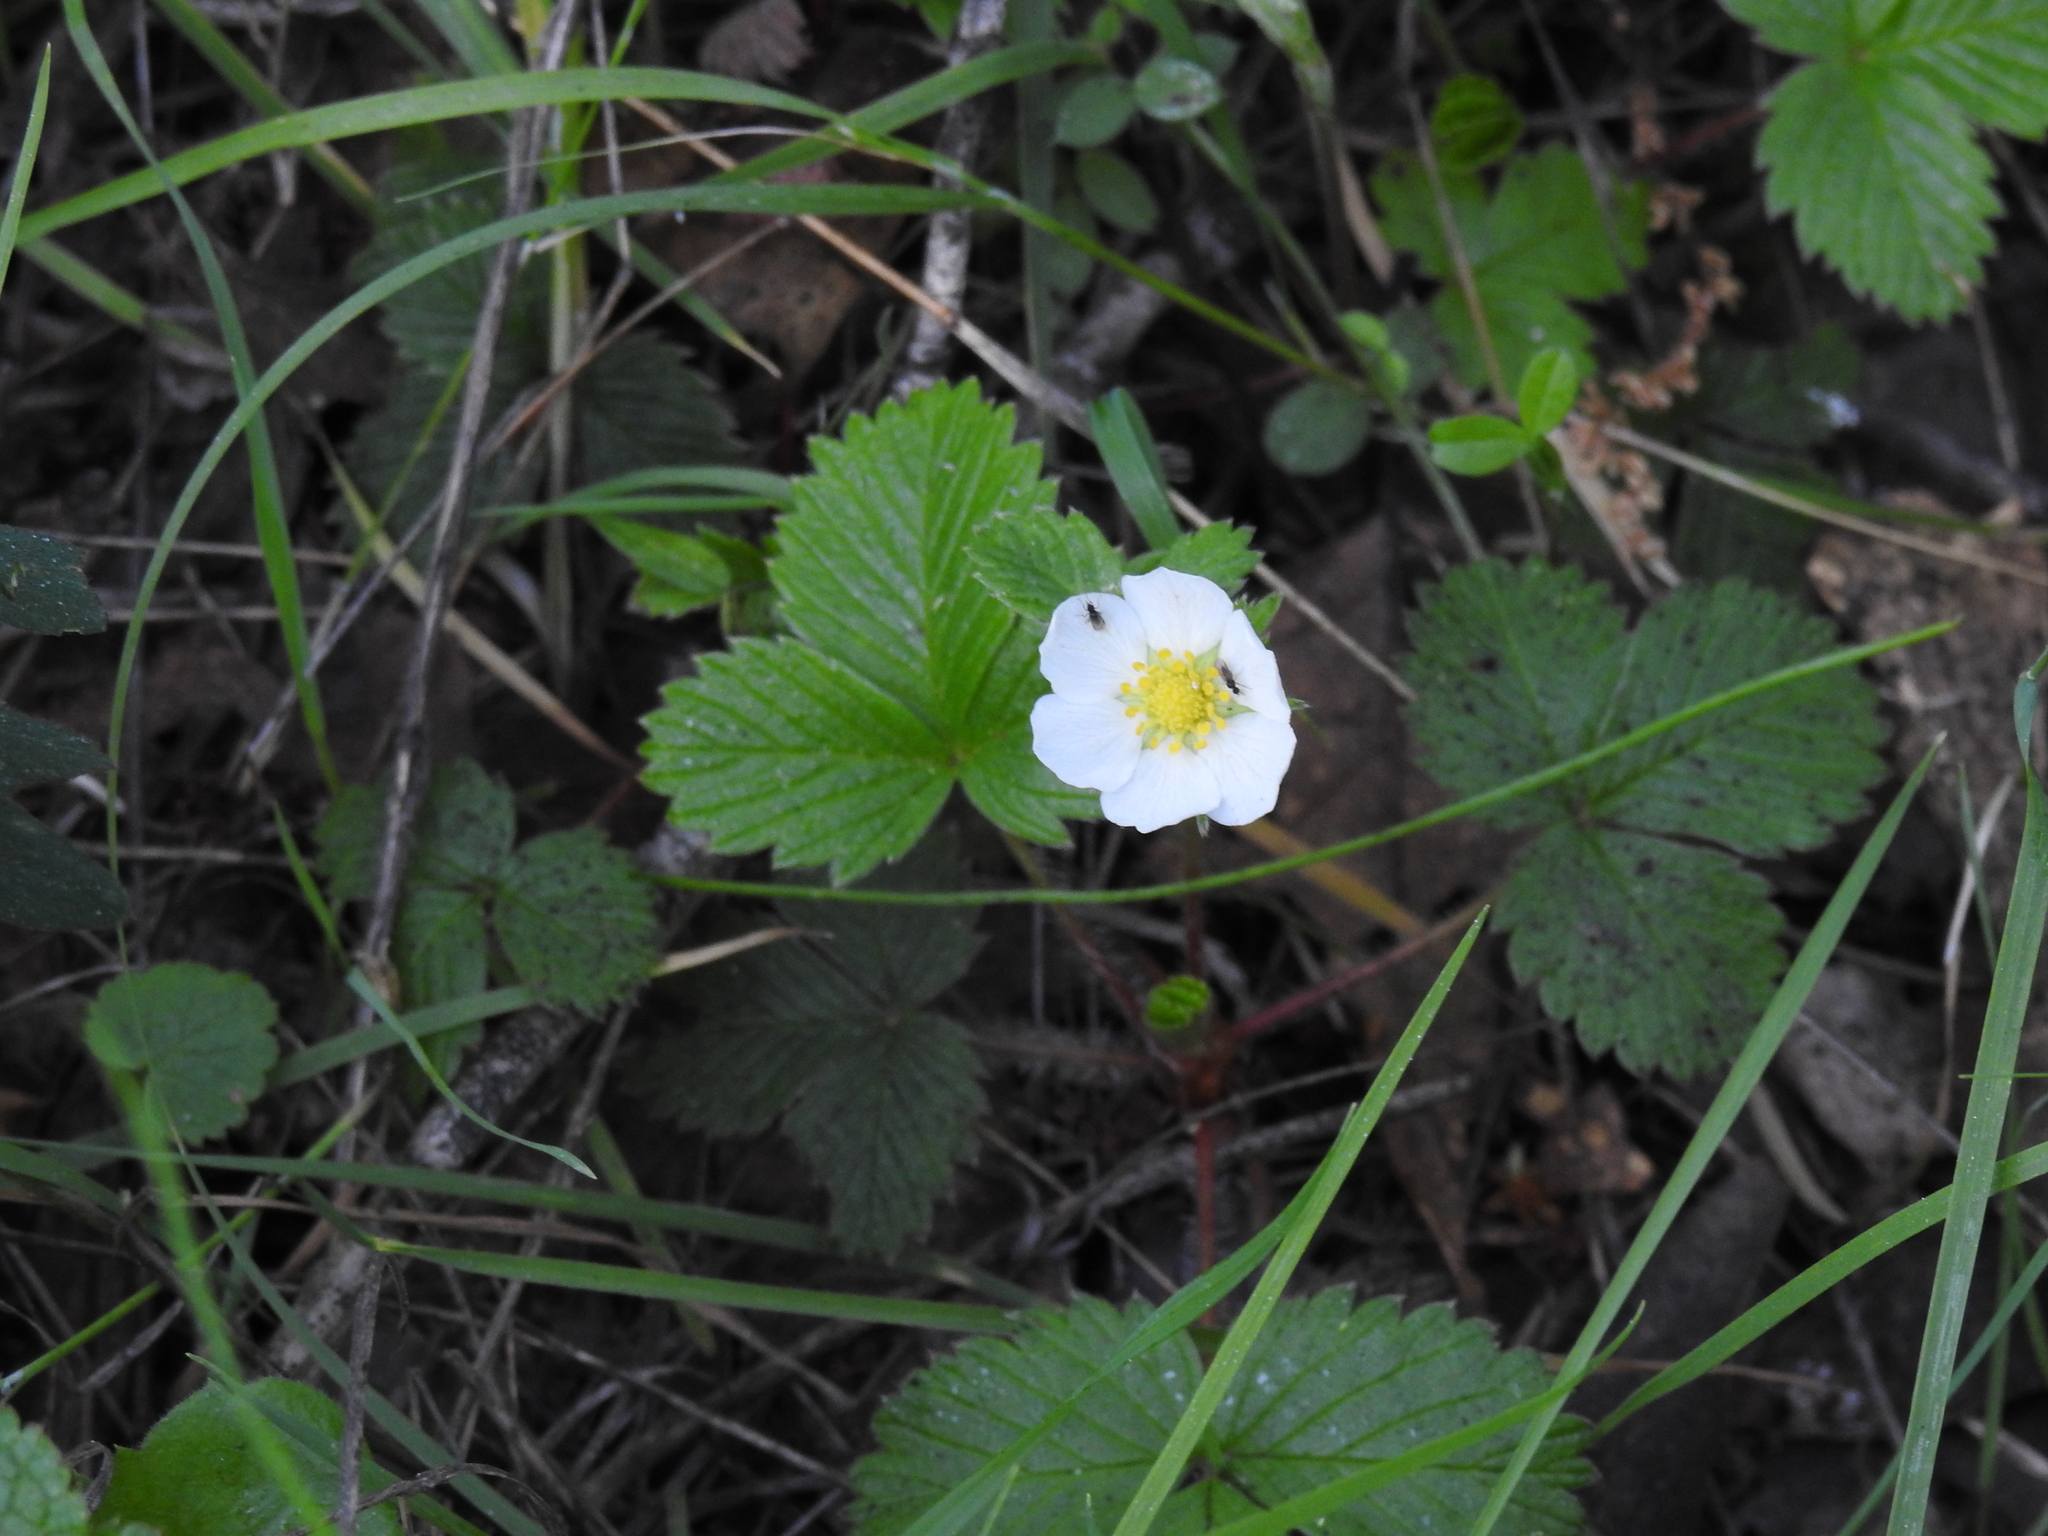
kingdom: Plantae
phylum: Tracheophyta
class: Magnoliopsida
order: Rosales
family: Rosaceae
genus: Fragaria
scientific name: Fragaria vesca
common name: Wild strawberry
